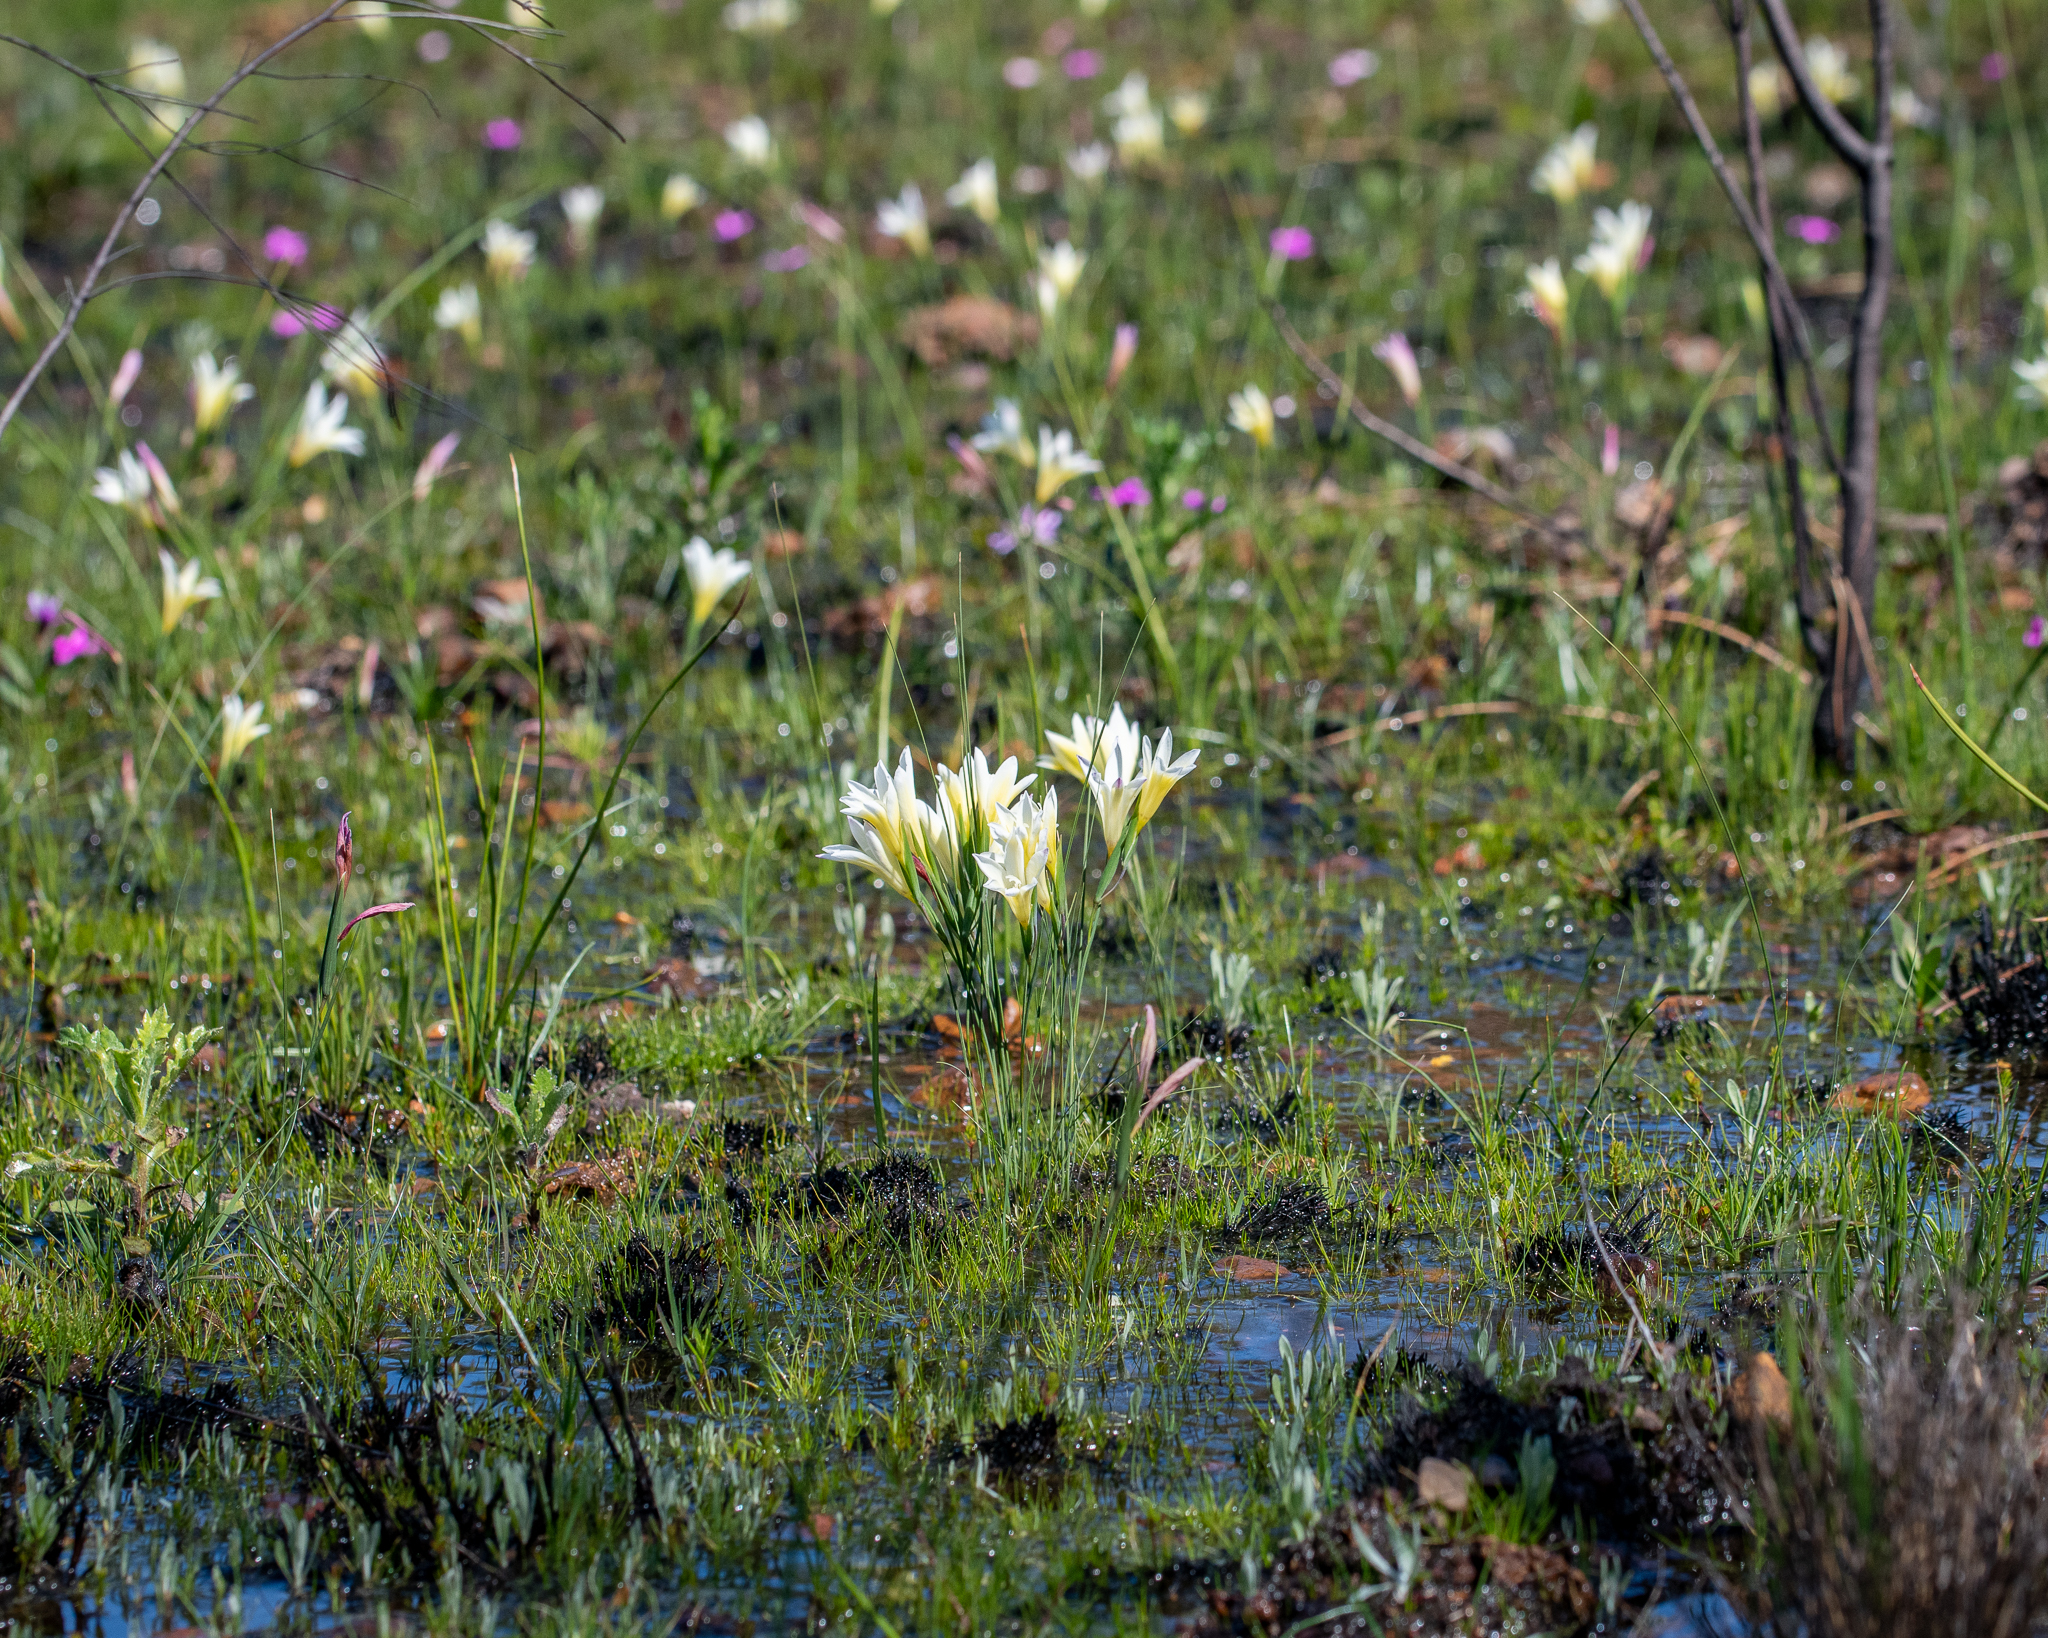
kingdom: Plantae
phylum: Tracheophyta
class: Liliopsida
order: Asparagales
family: Iridaceae
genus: Gladiolus
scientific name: Gladiolus trichonemifolius
